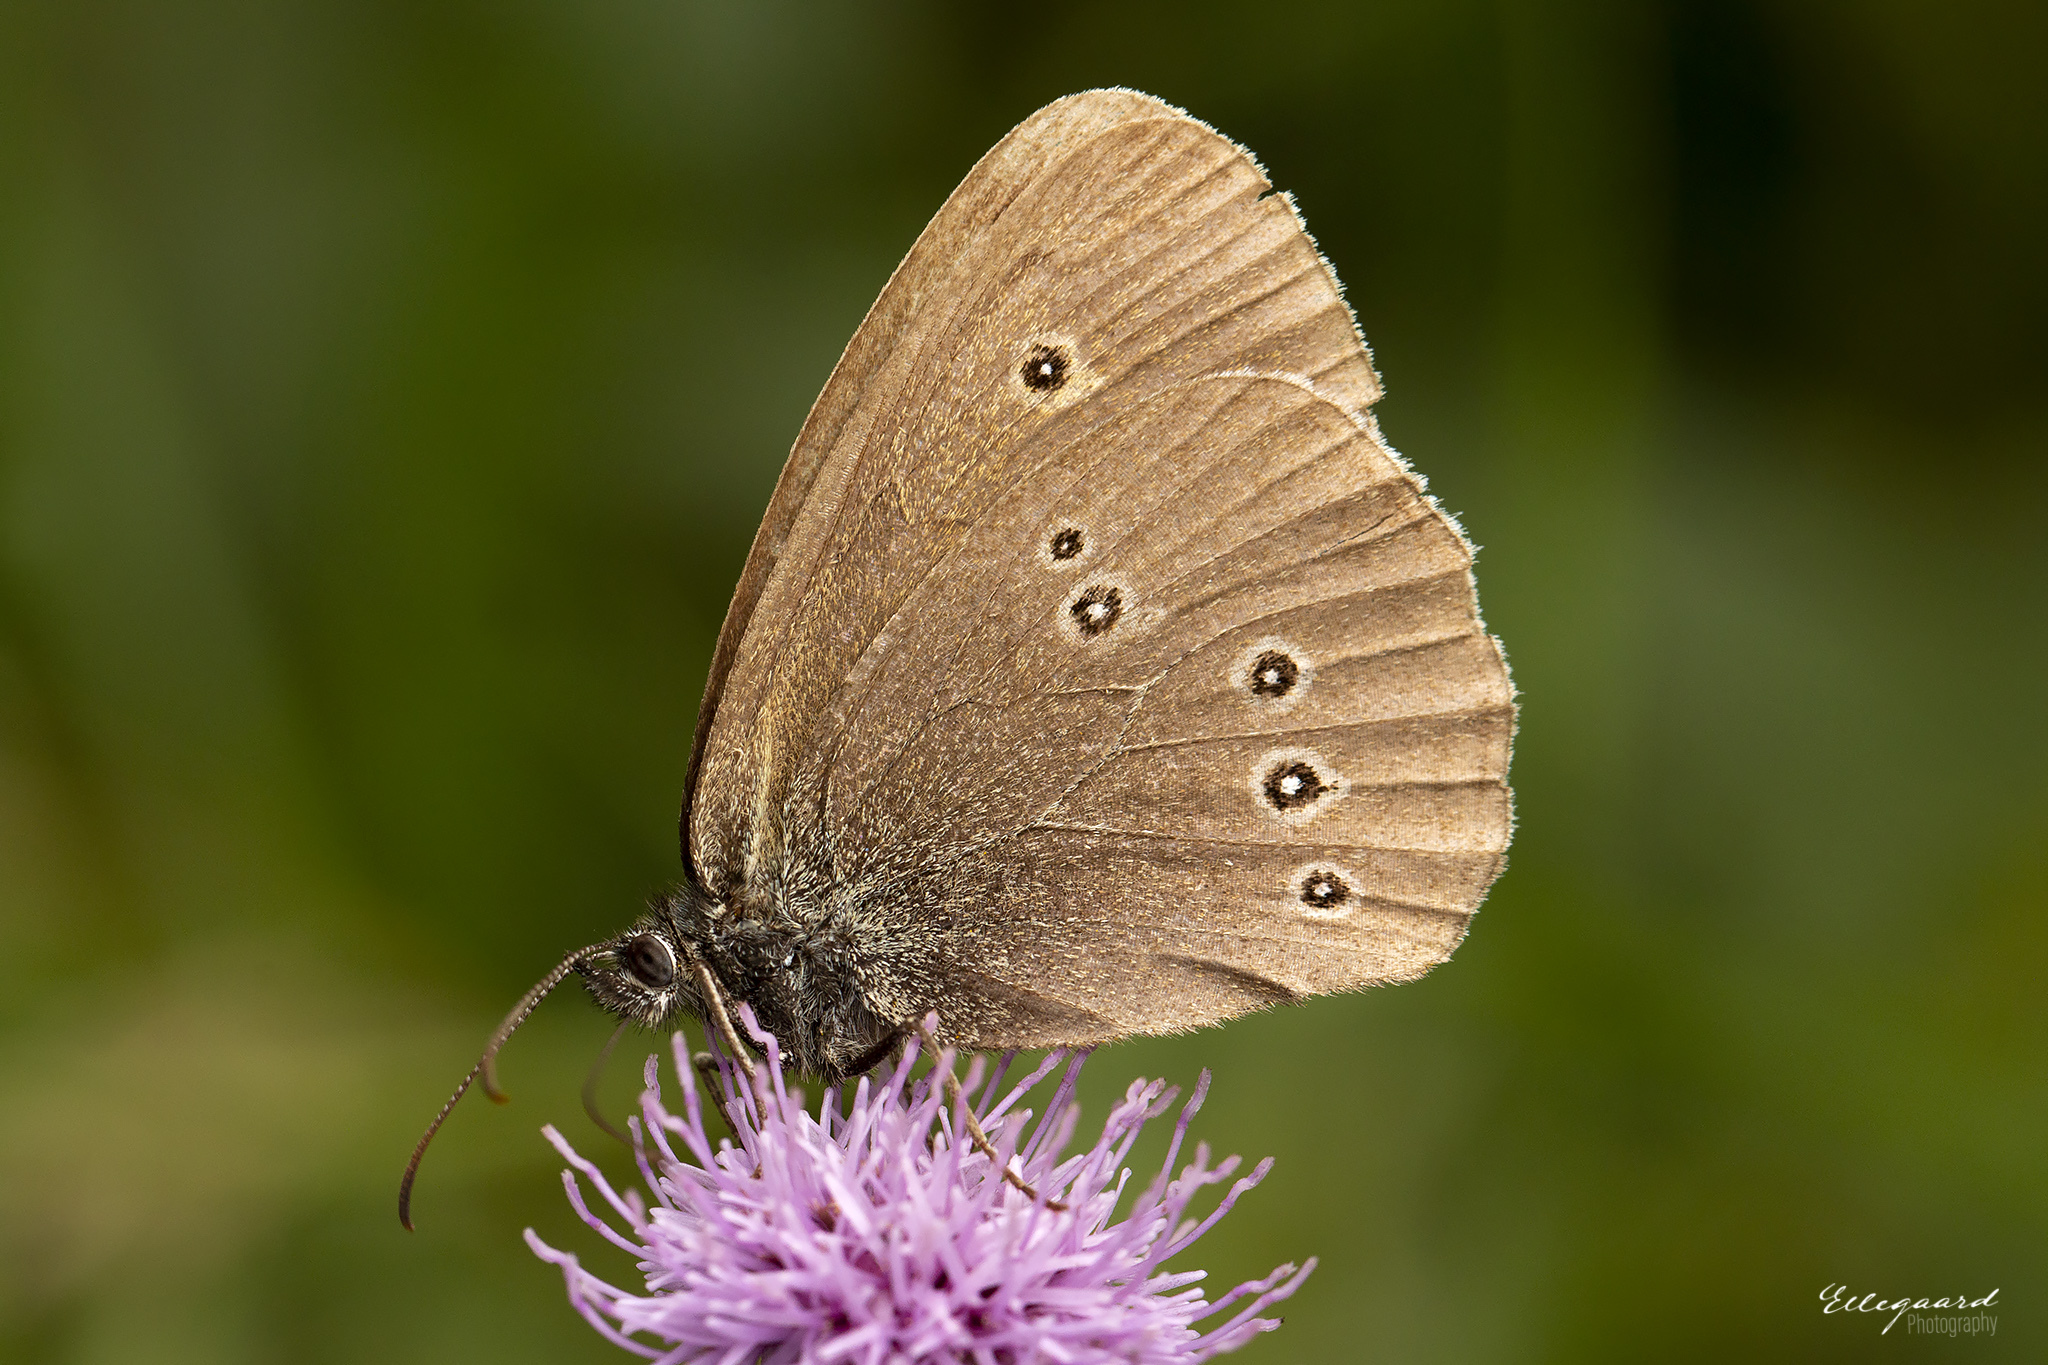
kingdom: Animalia
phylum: Arthropoda
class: Insecta
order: Lepidoptera
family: Nymphalidae
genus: Aphantopus
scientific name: Aphantopus hyperantus
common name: Ringlet
